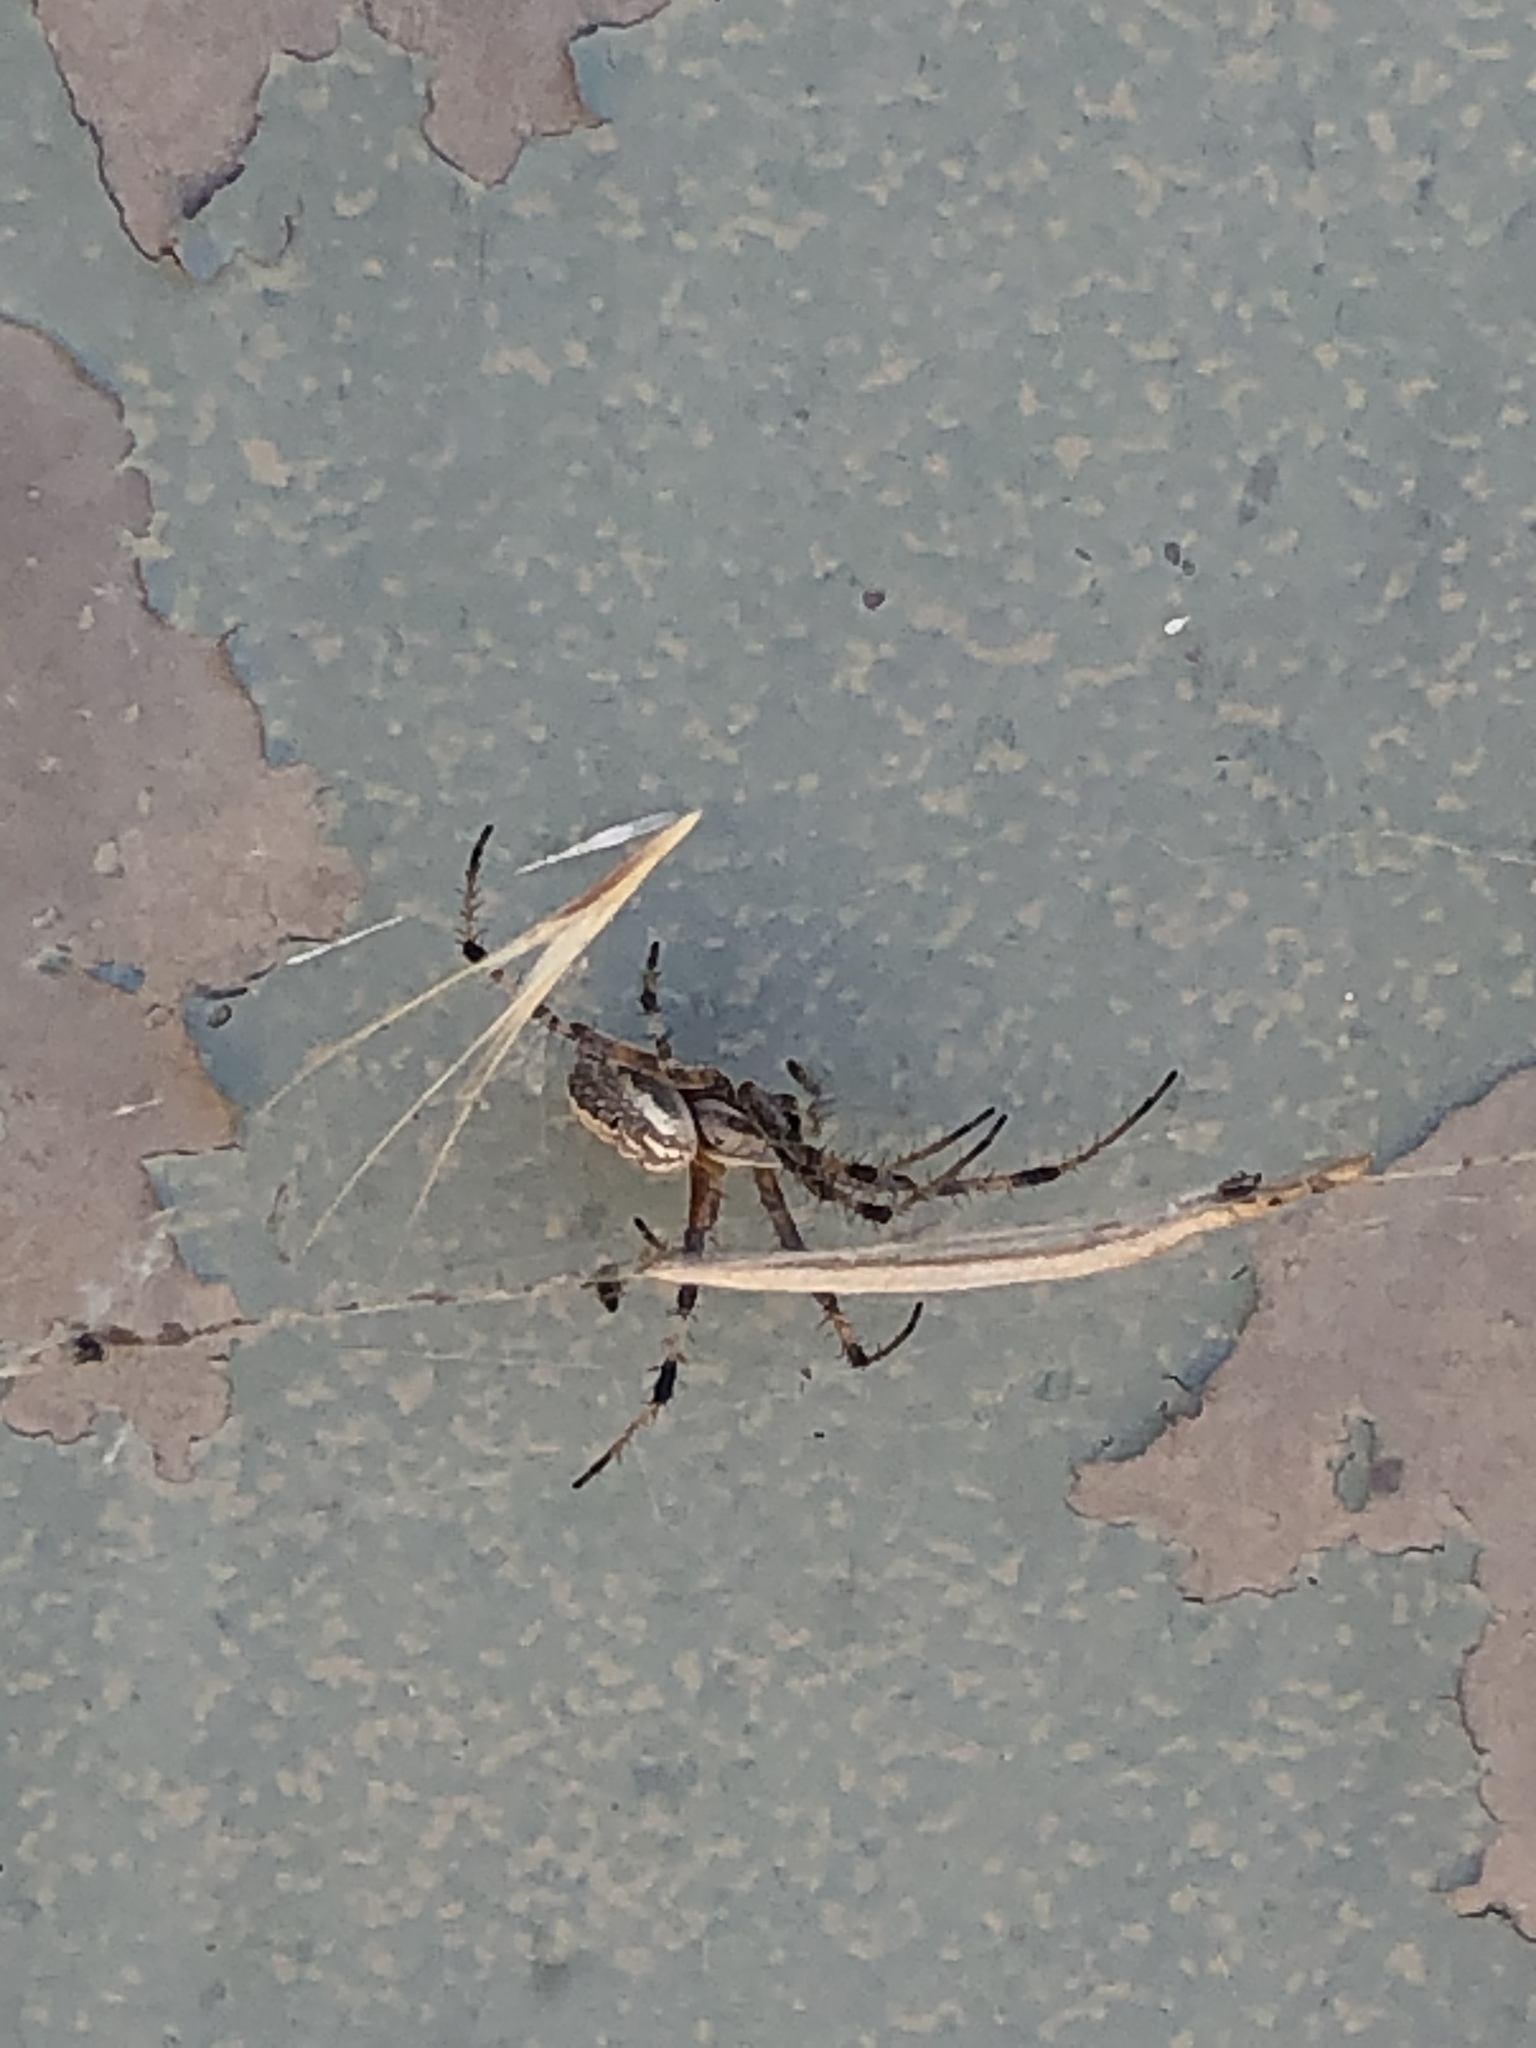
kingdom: Animalia
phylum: Arthropoda
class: Arachnida
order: Araneae
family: Araneidae
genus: Neoscona
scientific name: Neoscona oaxacensis
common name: Orb weavers
